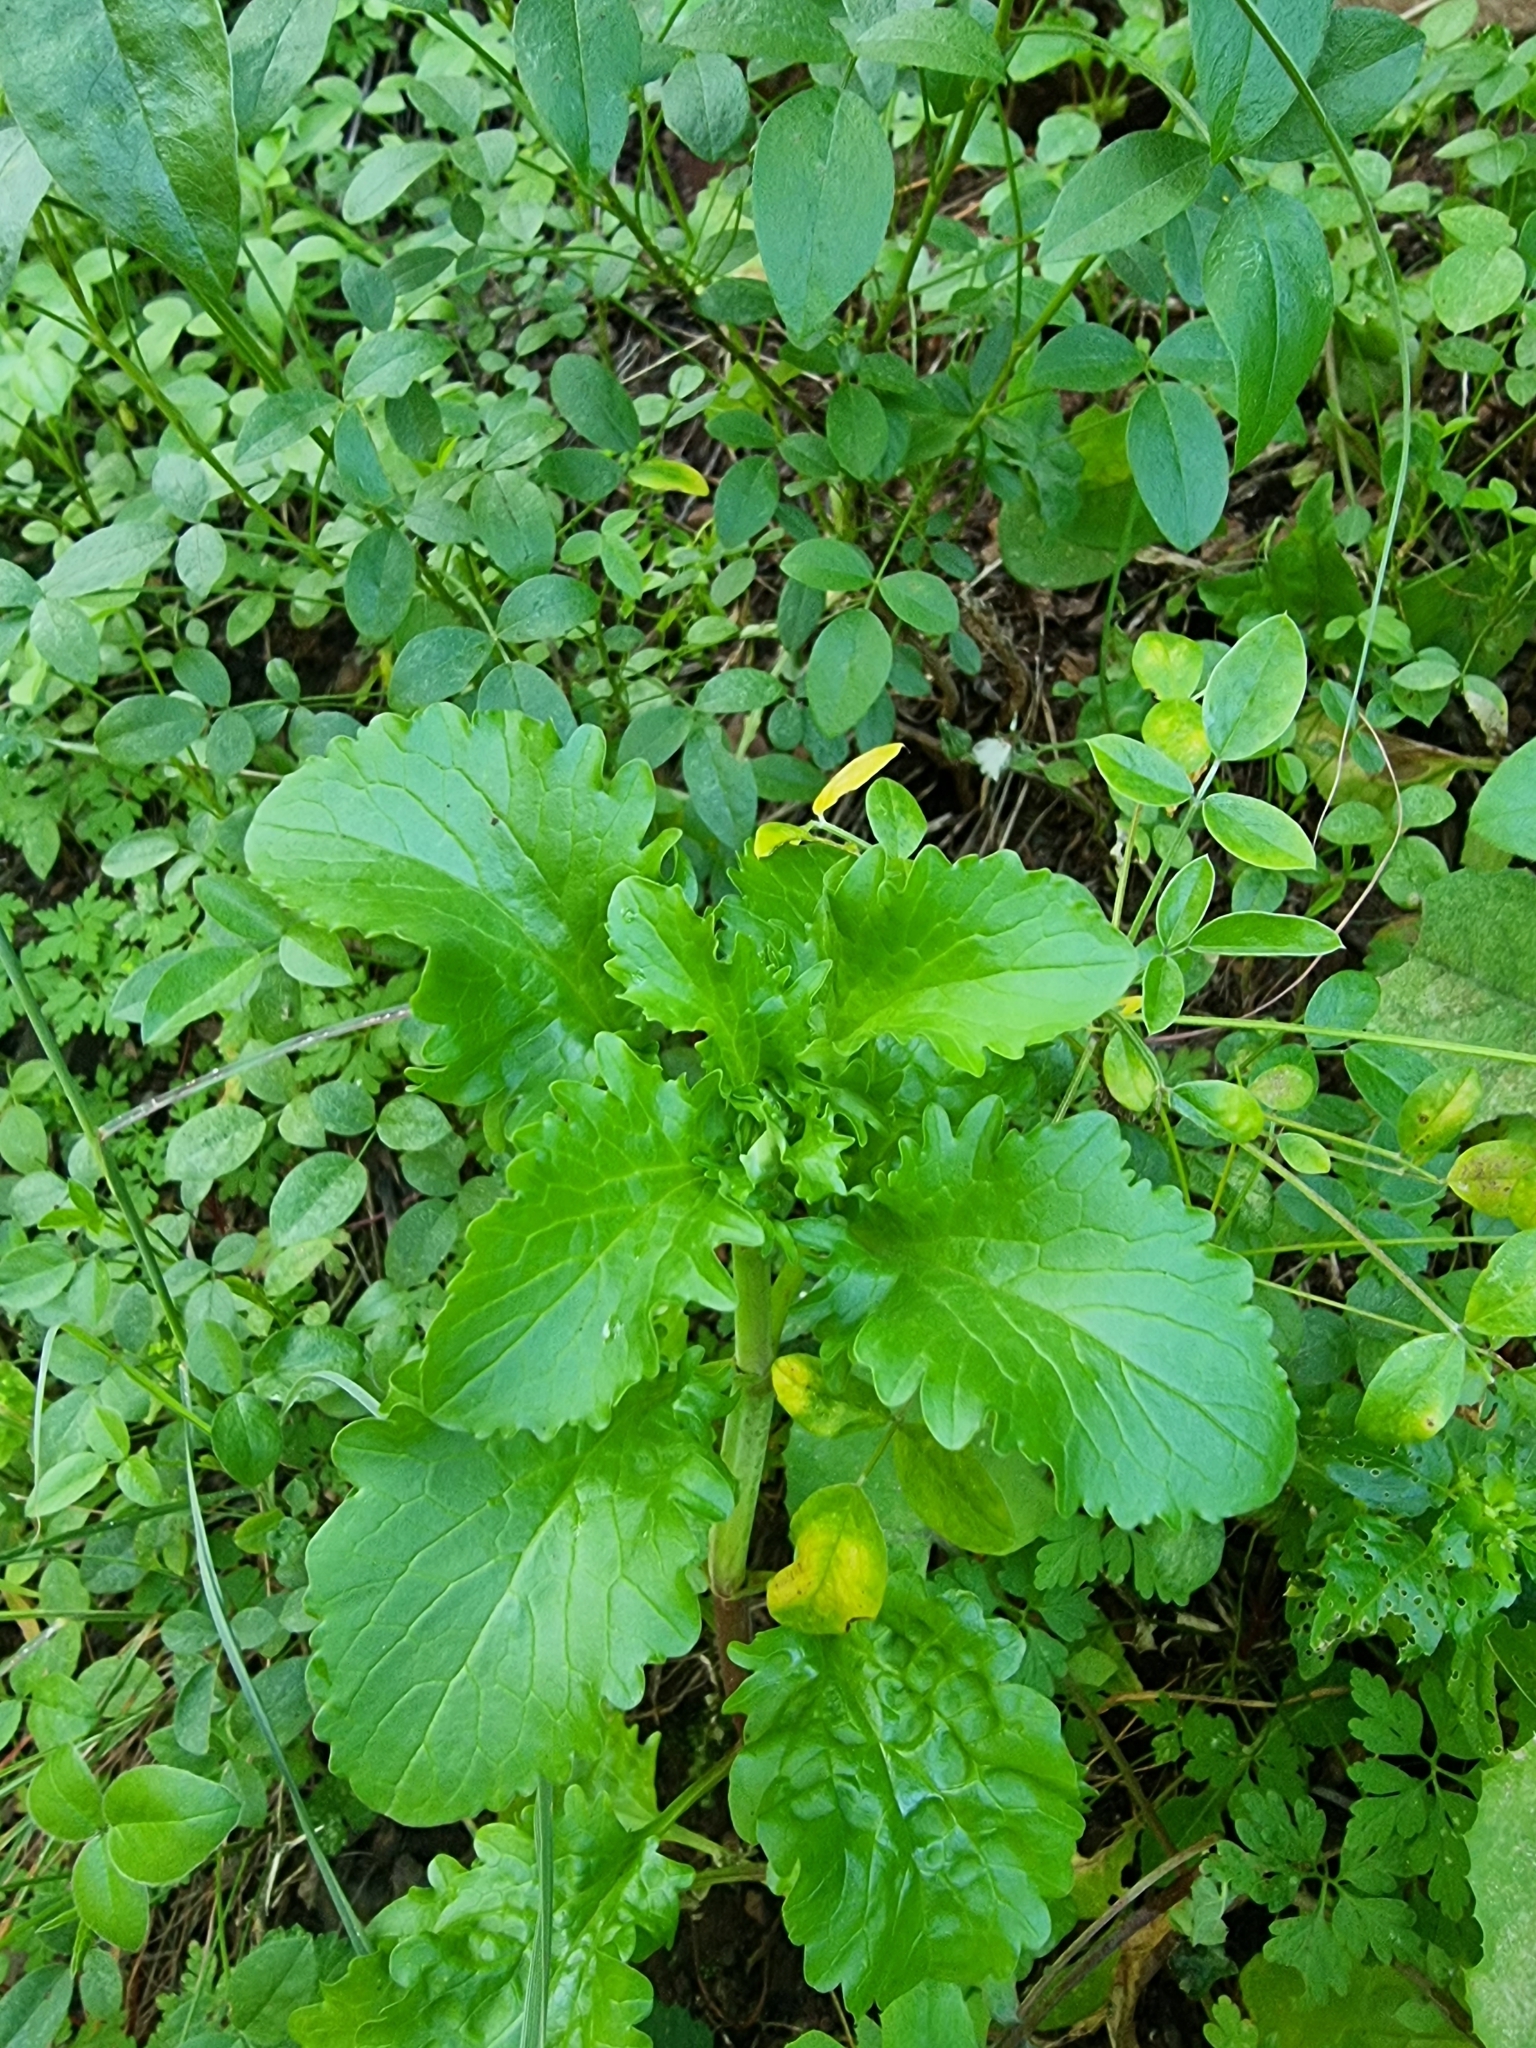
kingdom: Plantae
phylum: Tracheophyta
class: Magnoliopsida
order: Dipsacales
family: Caprifoliaceae
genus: Centranthus
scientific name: Centranthus calcitrapae
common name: Annual valerian
